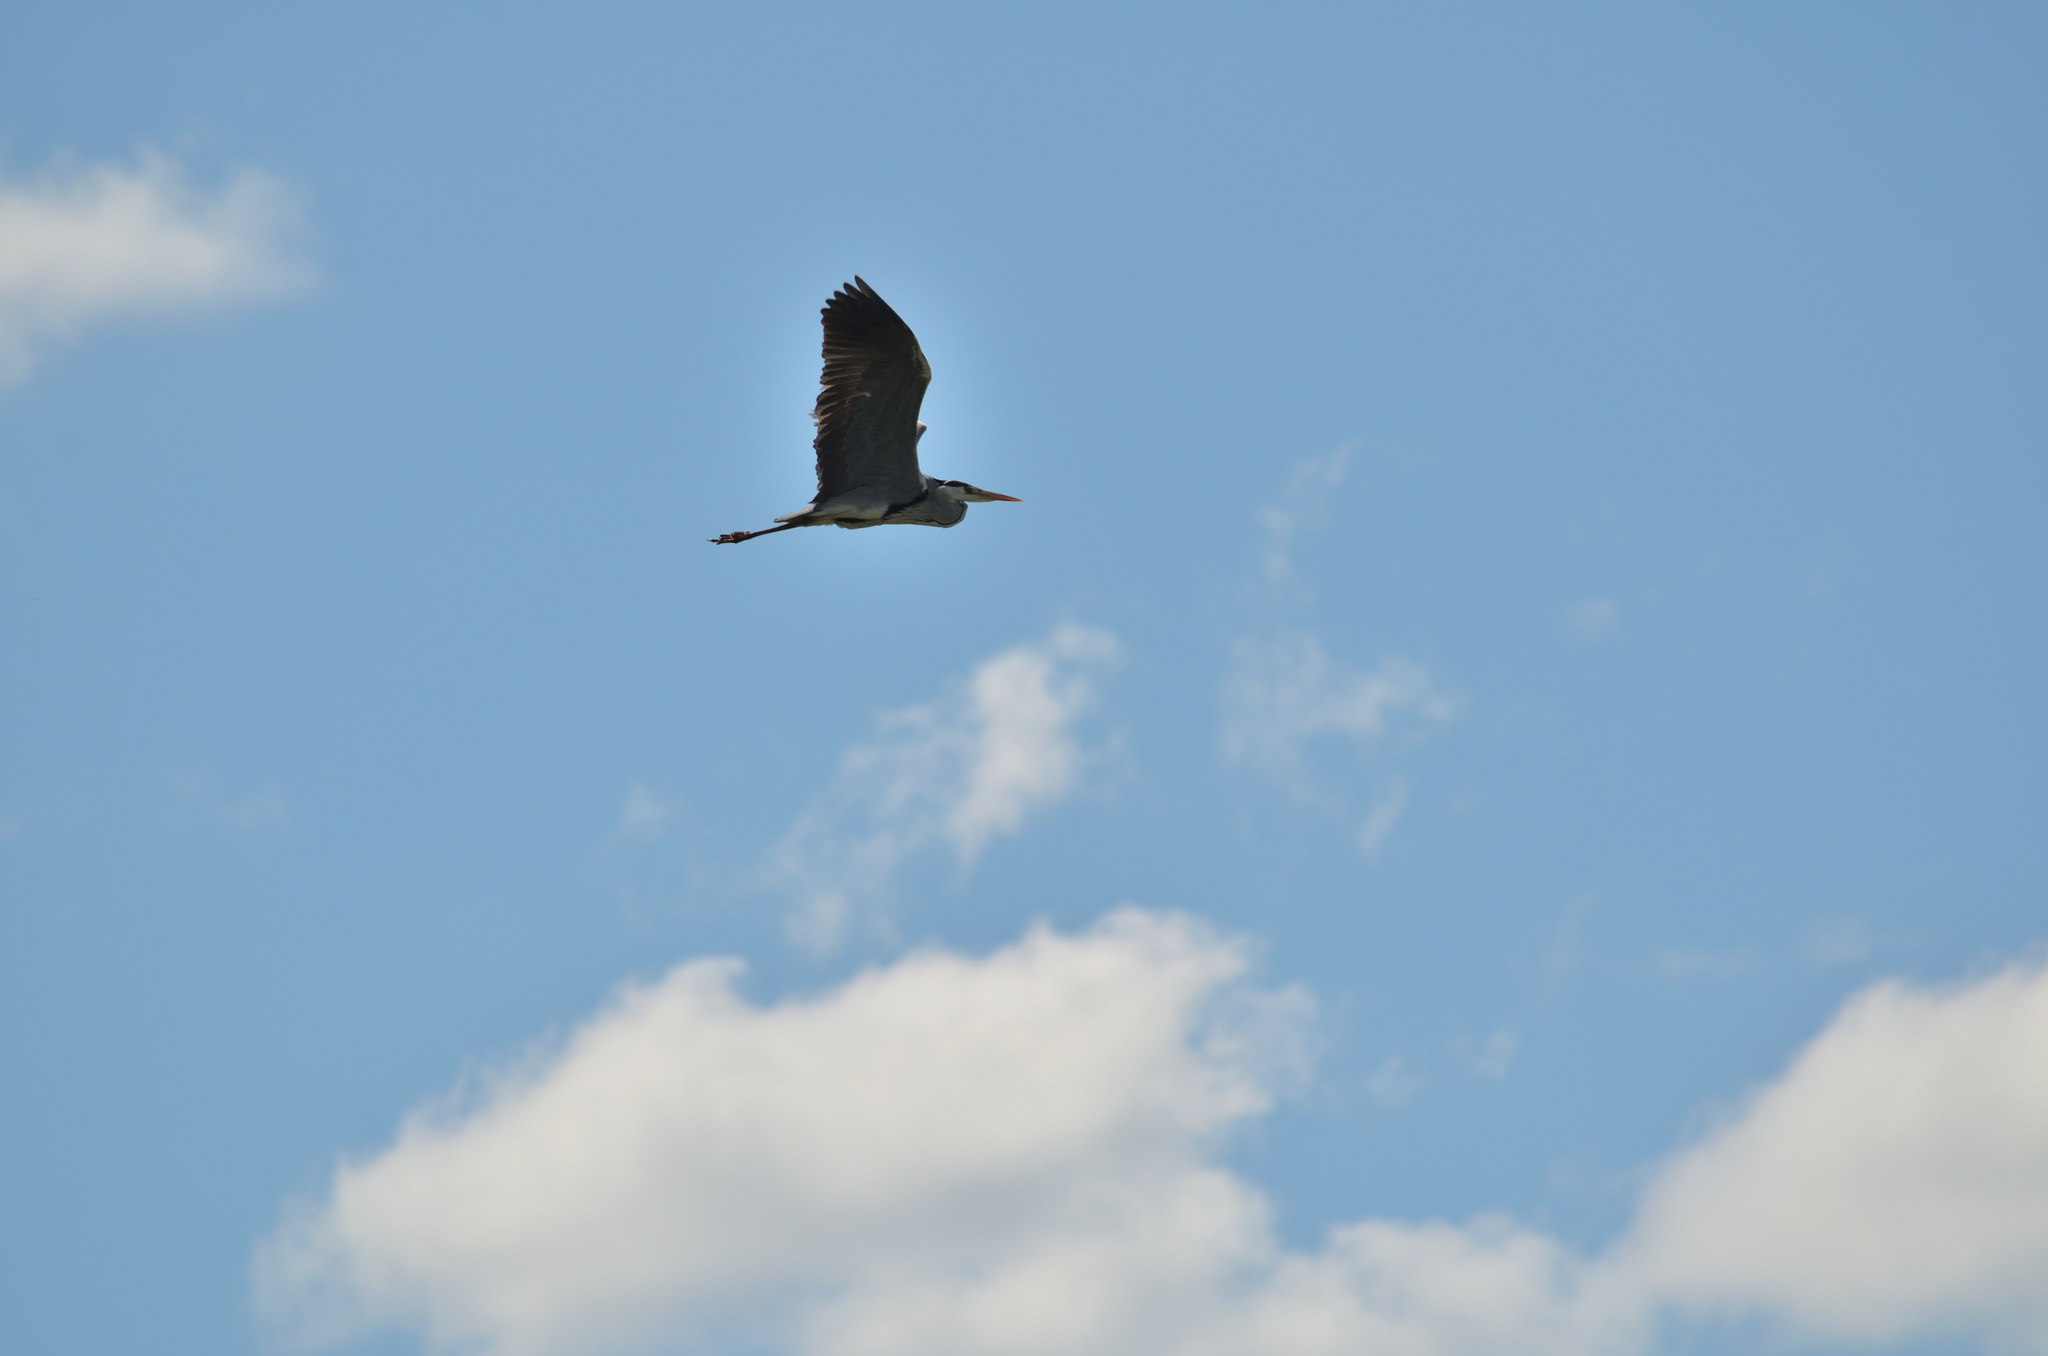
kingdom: Animalia
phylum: Chordata
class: Aves
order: Pelecaniformes
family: Ardeidae
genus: Ardea
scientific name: Ardea cinerea
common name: Grey heron
